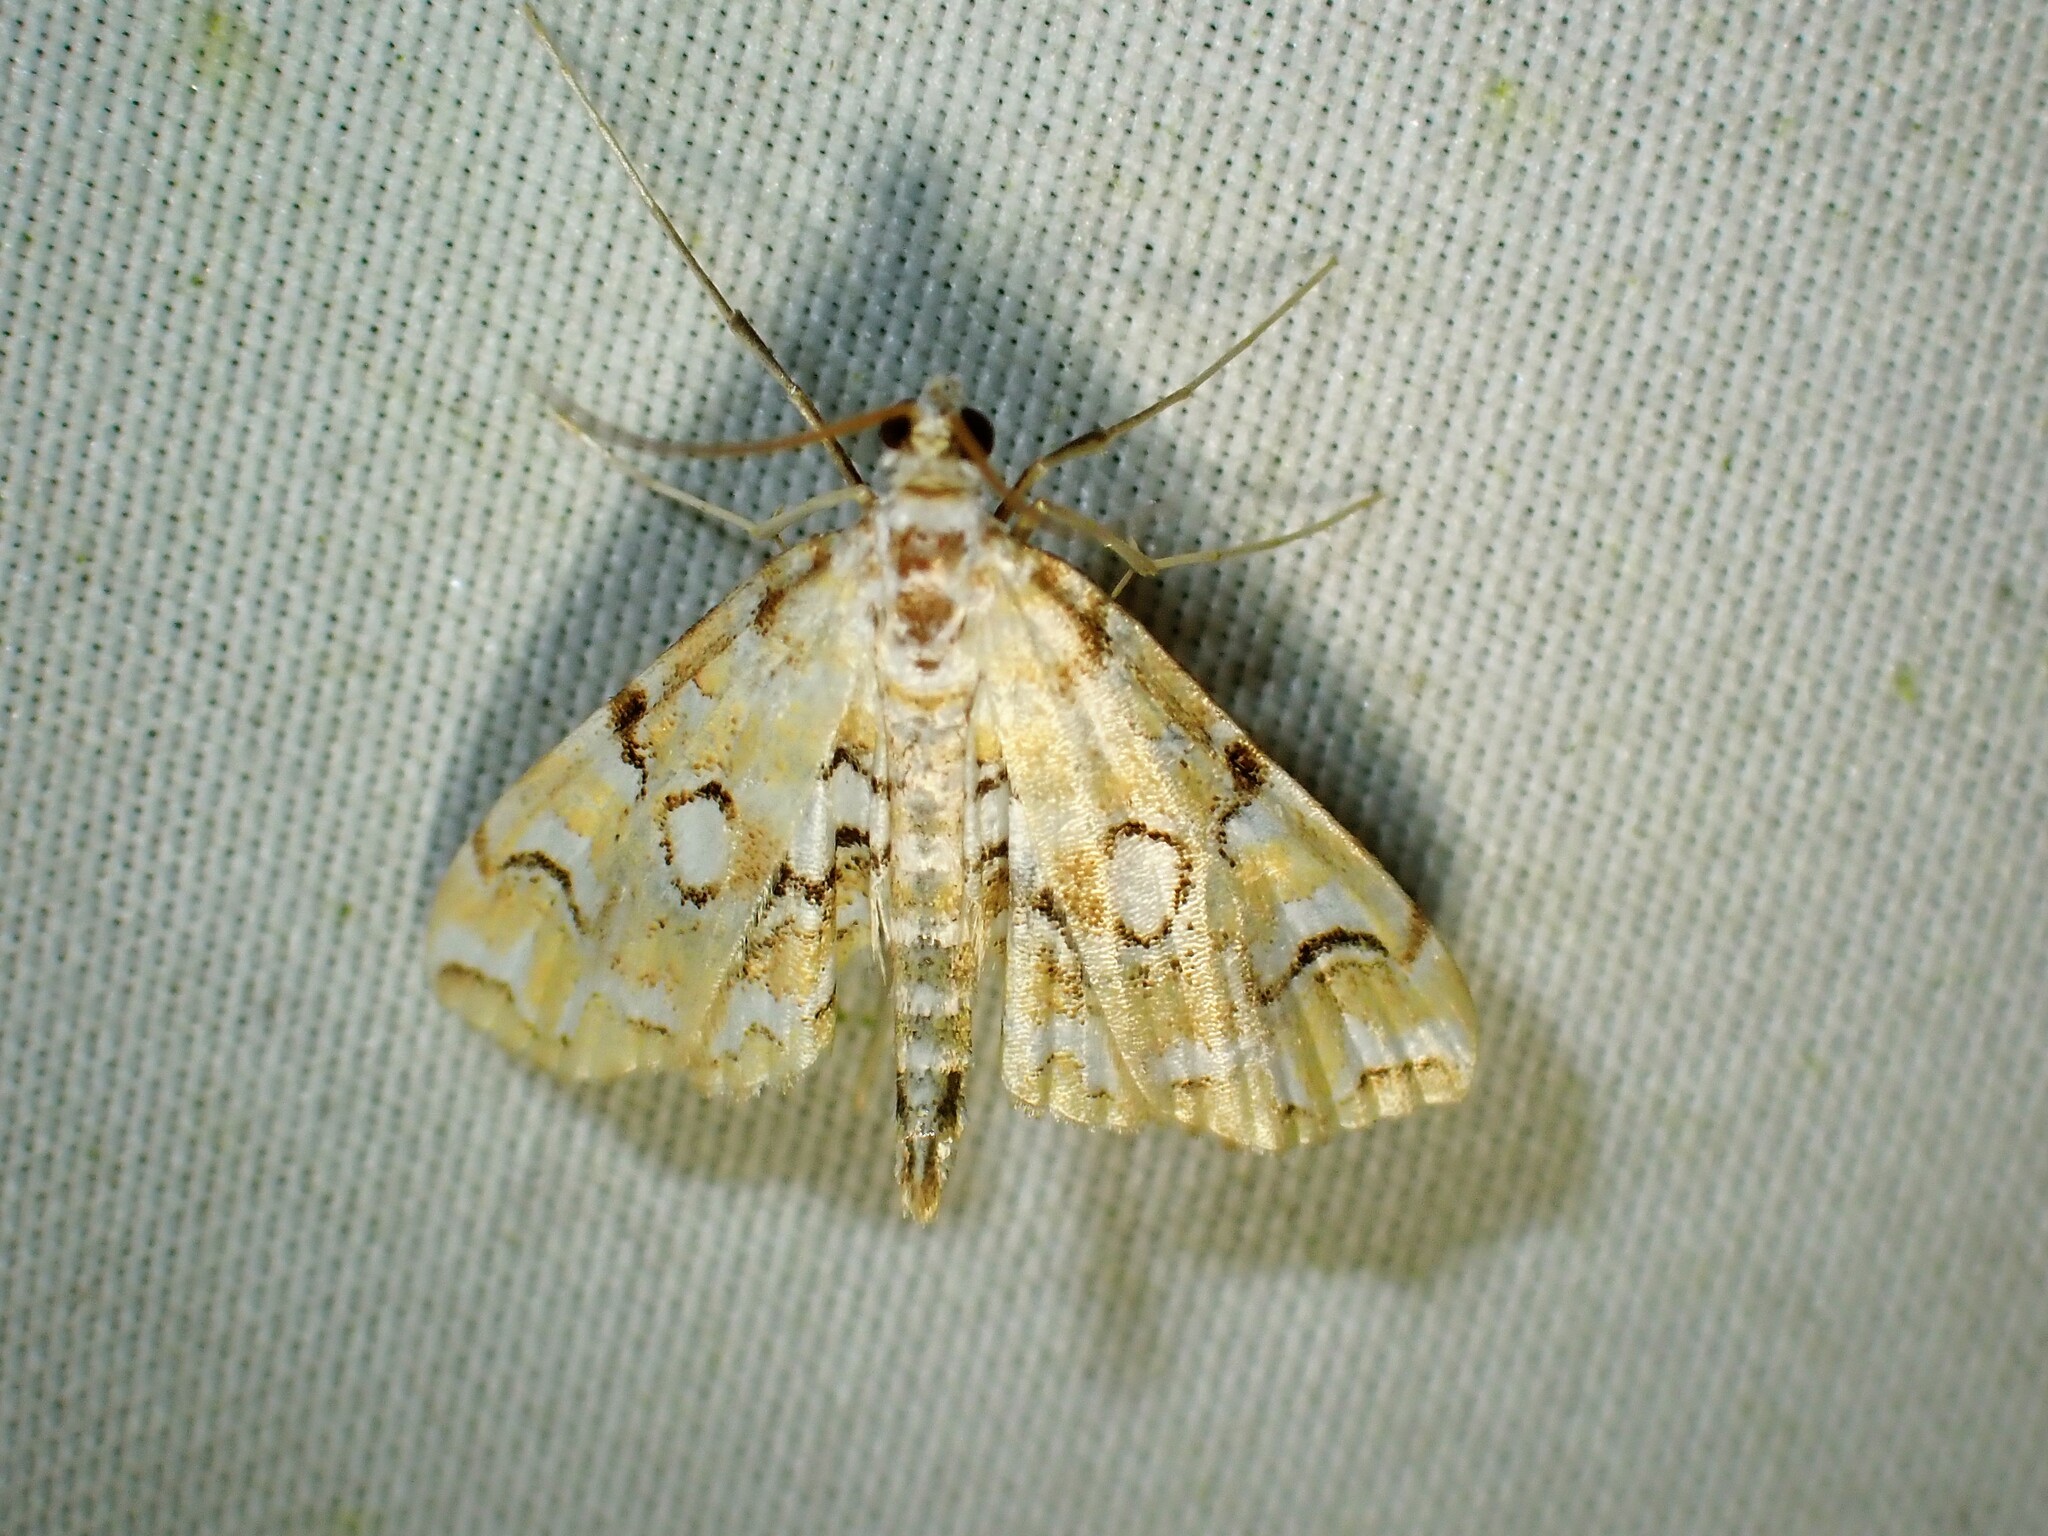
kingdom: Animalia
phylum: Arthropoda
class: Insecta
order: Lepidoptera
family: Crambidae
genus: Elophila
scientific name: Elophila icciusalis
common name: Pondside pyralid moth
